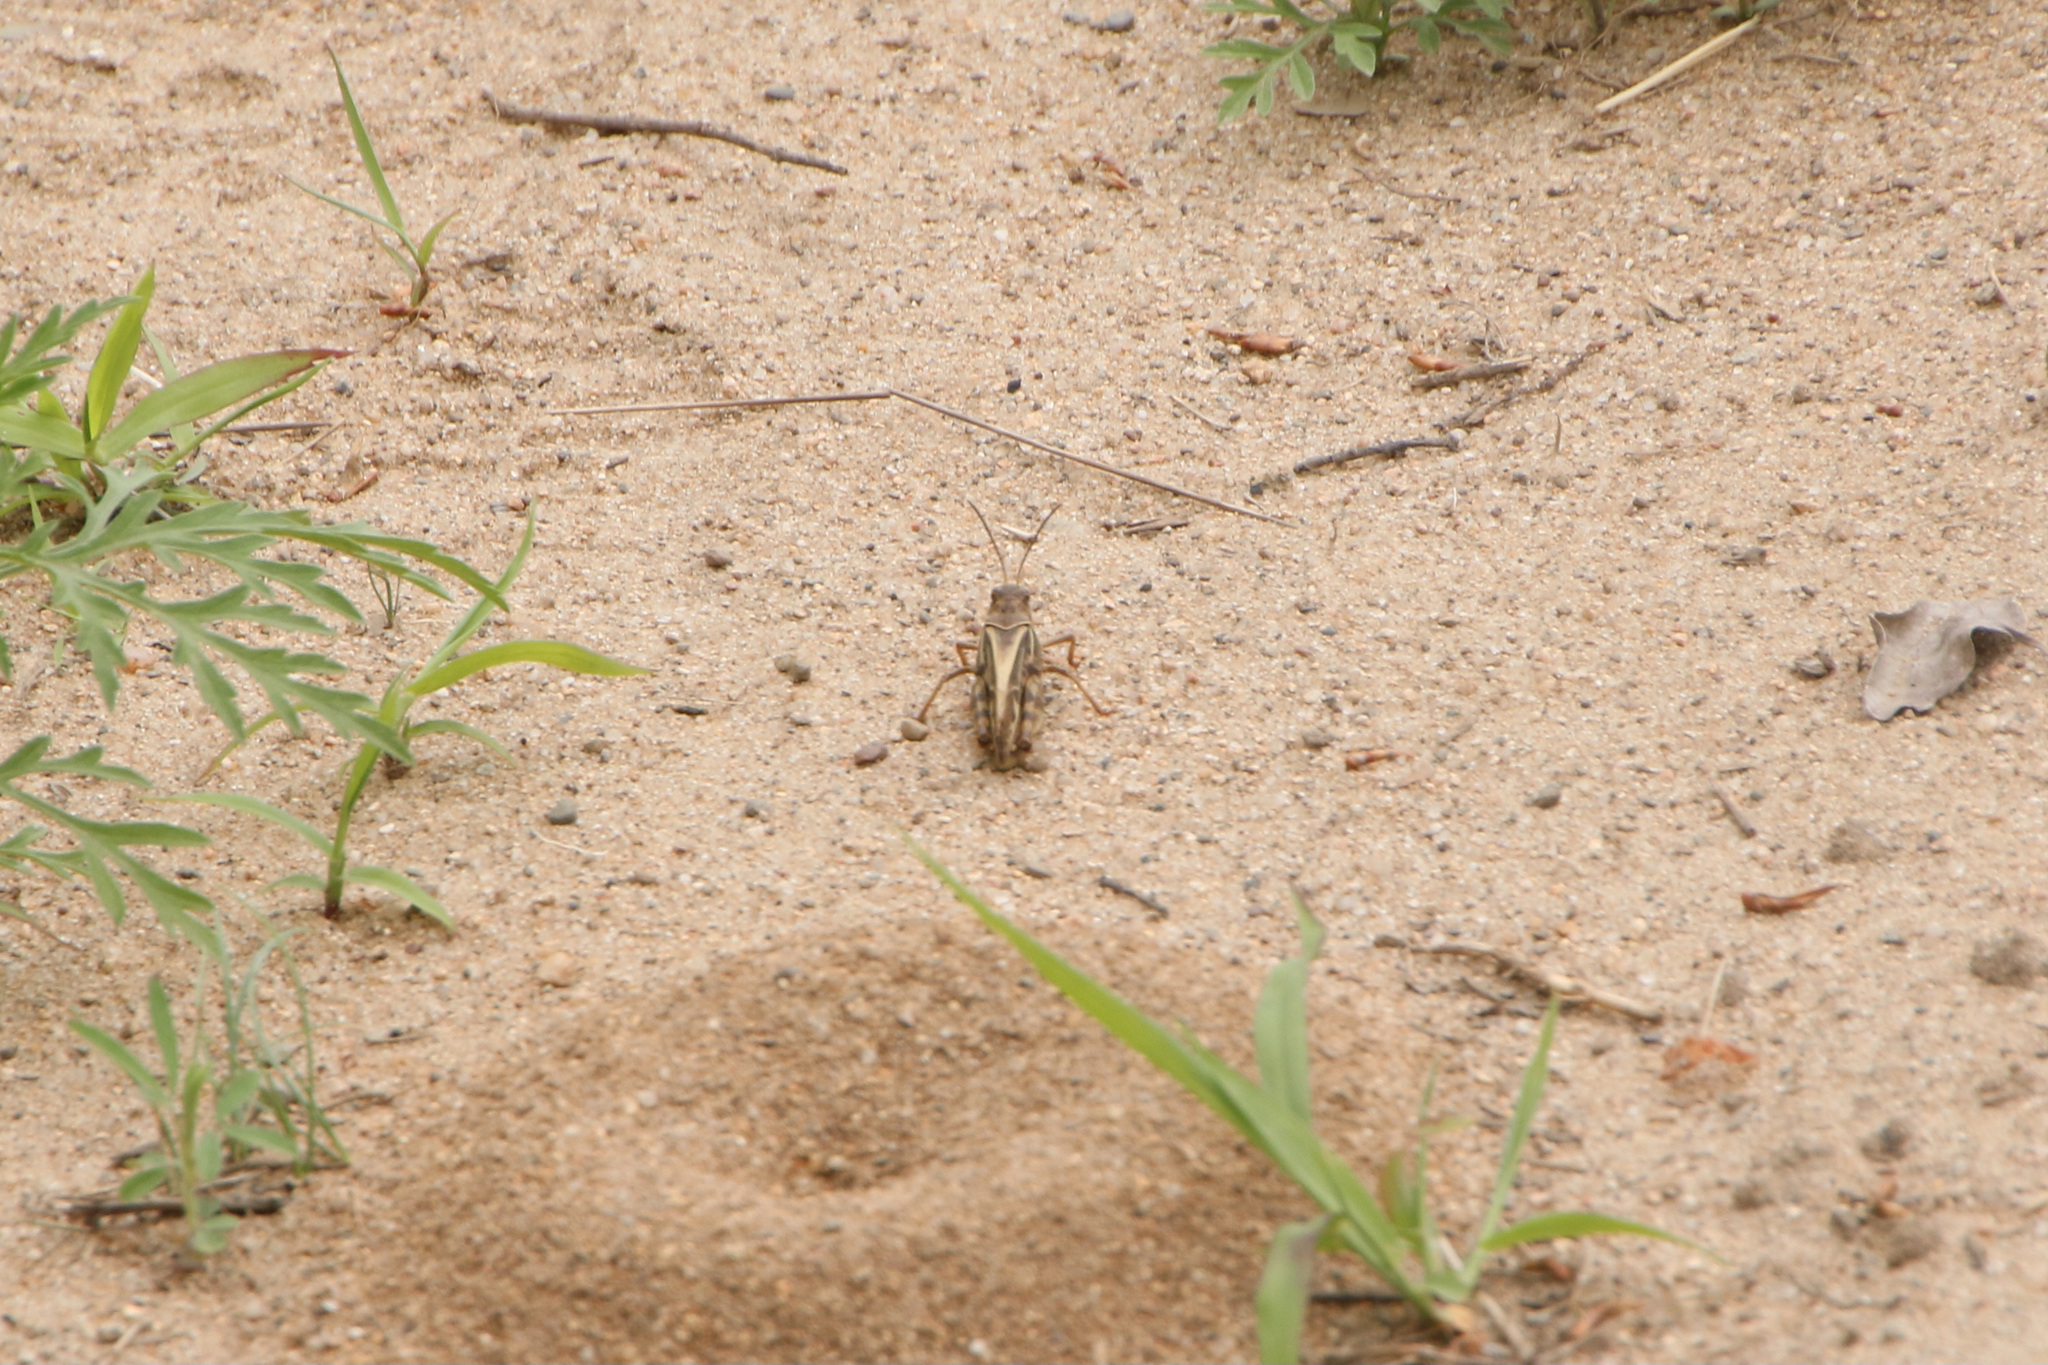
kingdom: Animalia
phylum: Arthropoda
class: Insecta
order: Orthoptera
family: Acrididae
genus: Pardalophora
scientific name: Pardalophora apiculata
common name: Coral-winged locust
